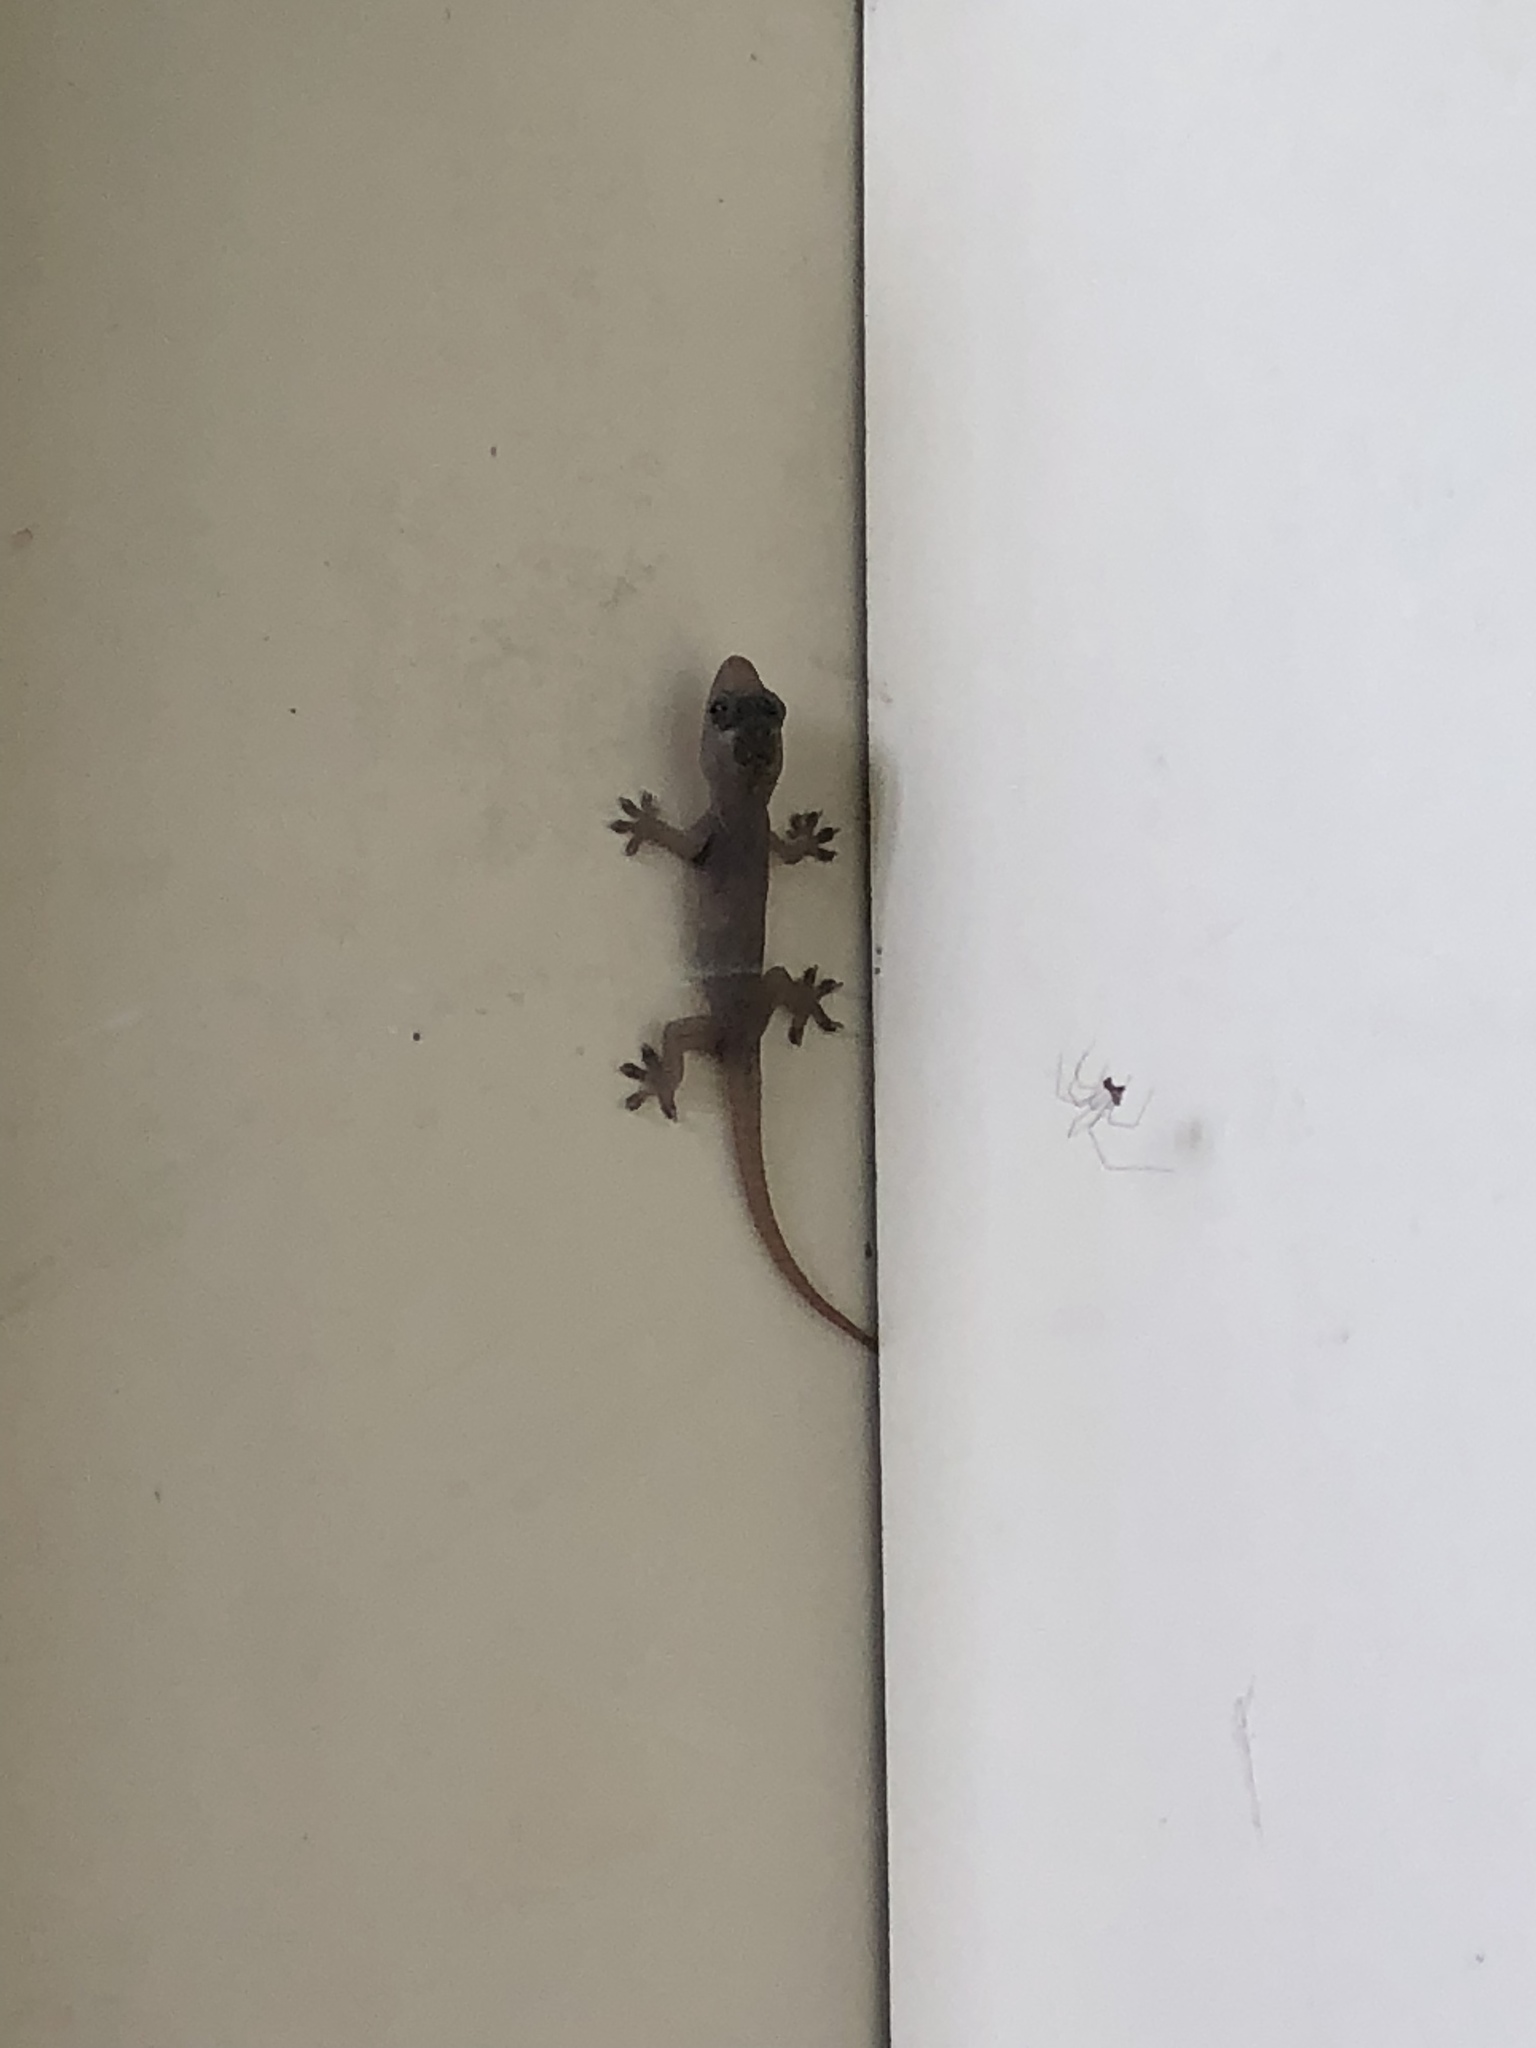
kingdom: Animalia
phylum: Chordata
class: Squamata
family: Gekkonidae
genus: Hemidactylus
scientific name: Hemidactylus frenatus
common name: Common house gecko
